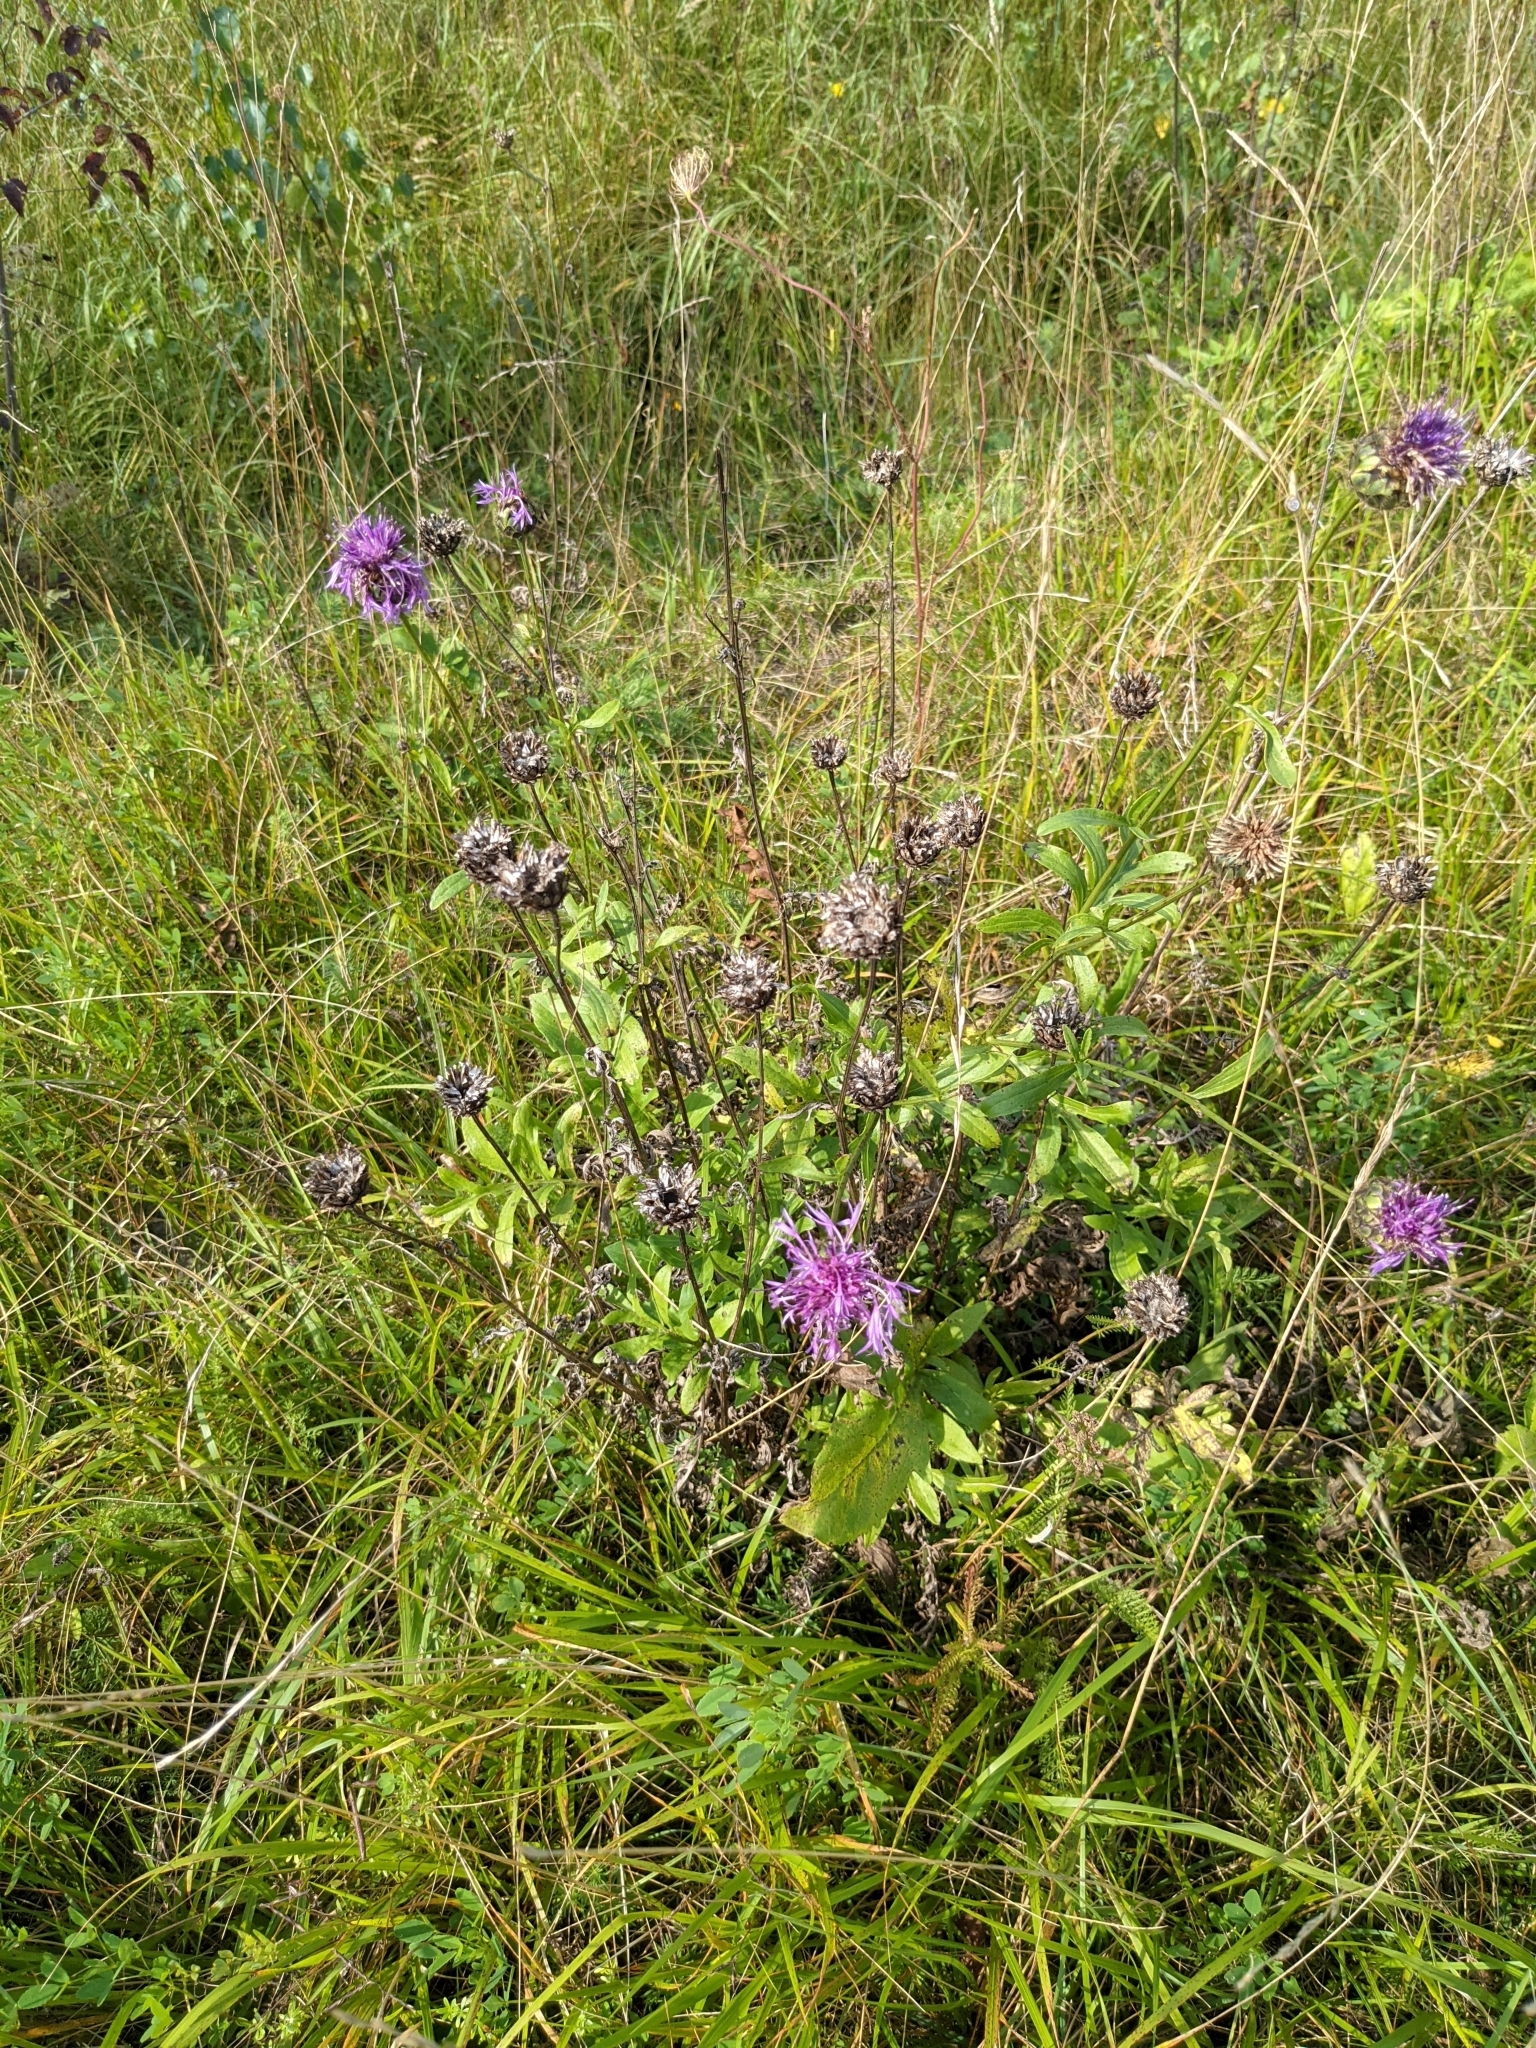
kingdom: Plantae
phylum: Tracheophyta
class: Magnoliopsida
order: Asterales
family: Asteraceae
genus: Centaurea
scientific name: Centaurea scabiosa
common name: Greater knapweed
